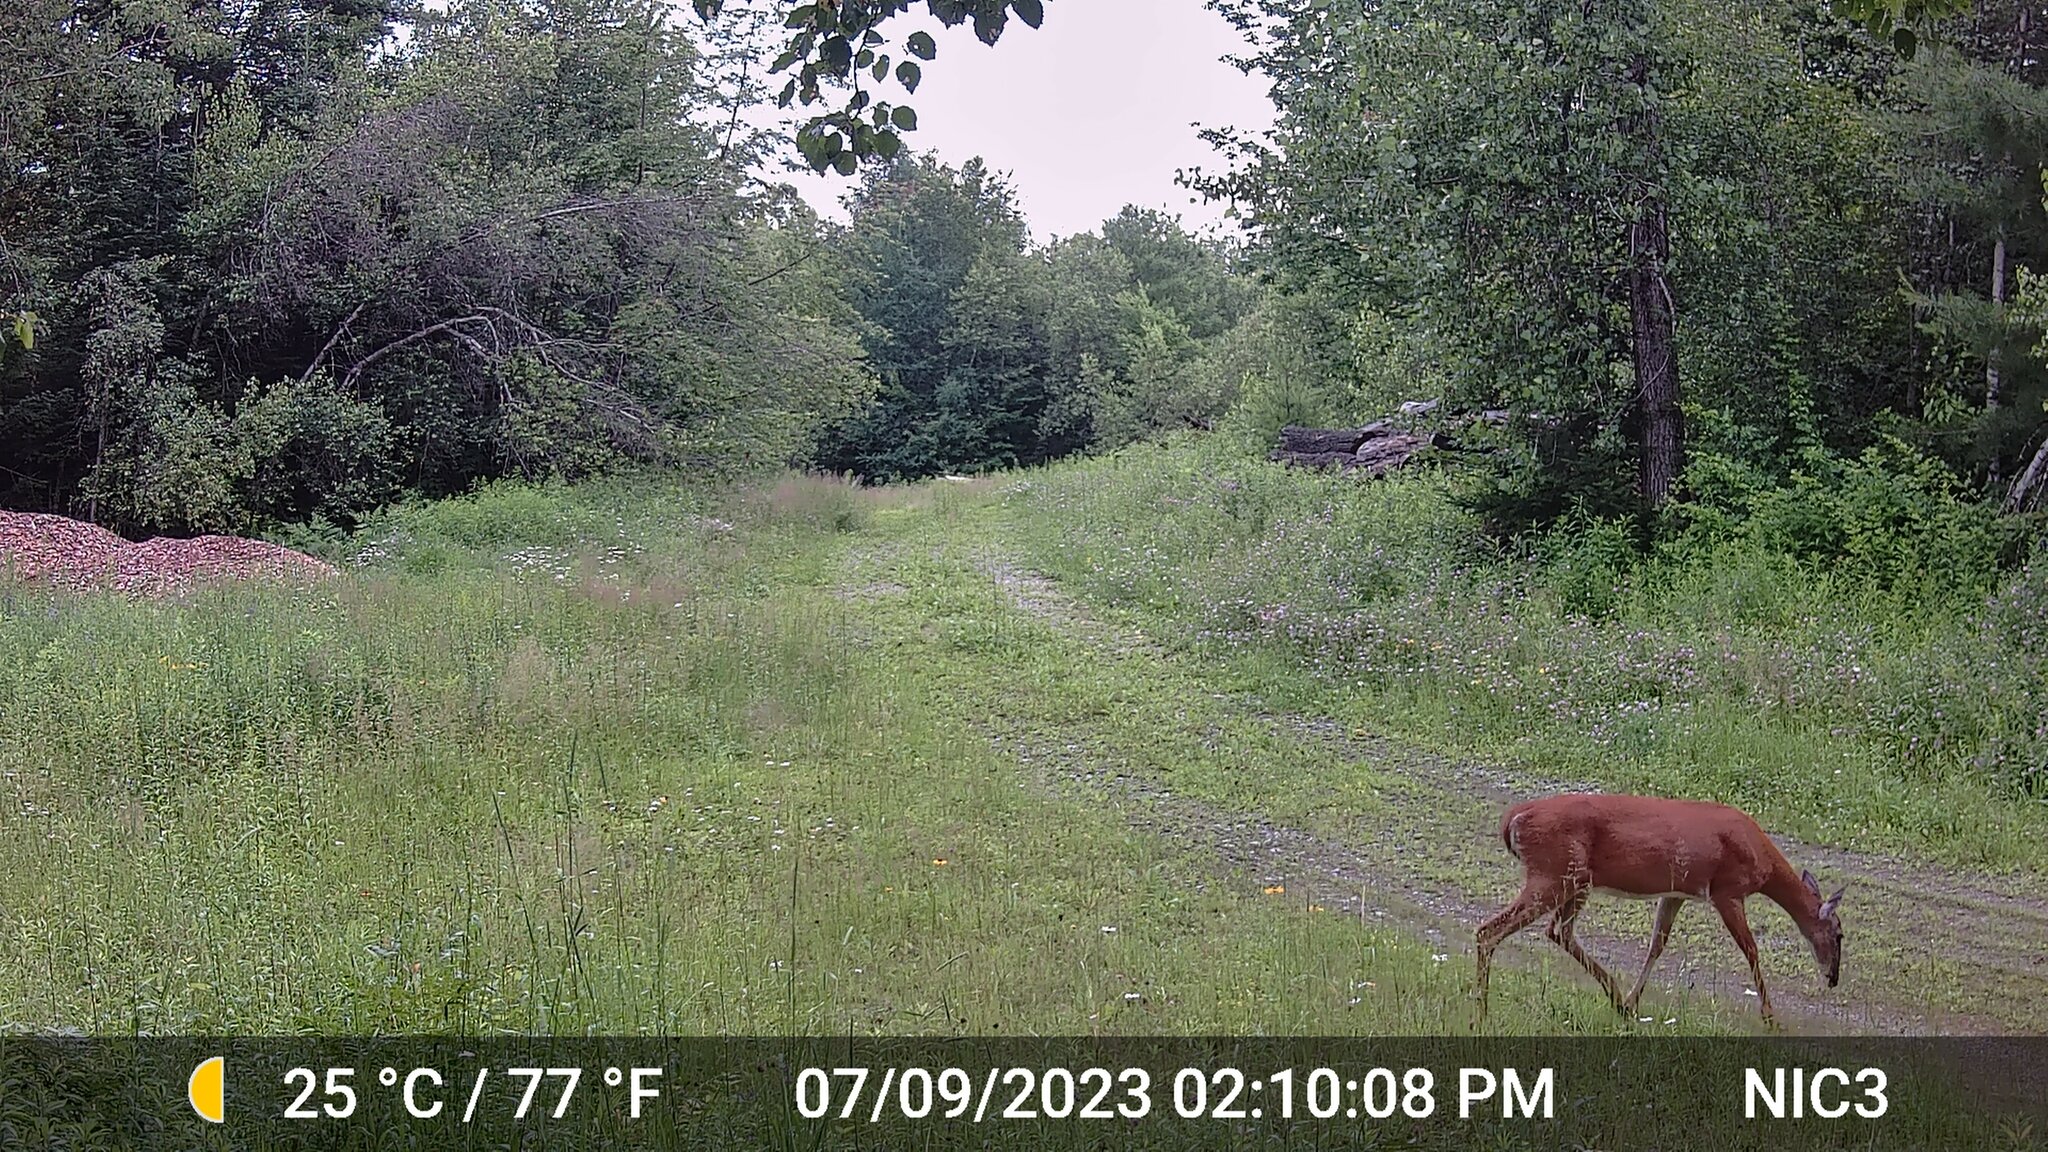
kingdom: Animalia
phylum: Chordata
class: Mammalia
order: Artiodactyla
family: Cervidae
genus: Odocoileus
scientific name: Odocoileus virginianus
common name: White-tailed deer
